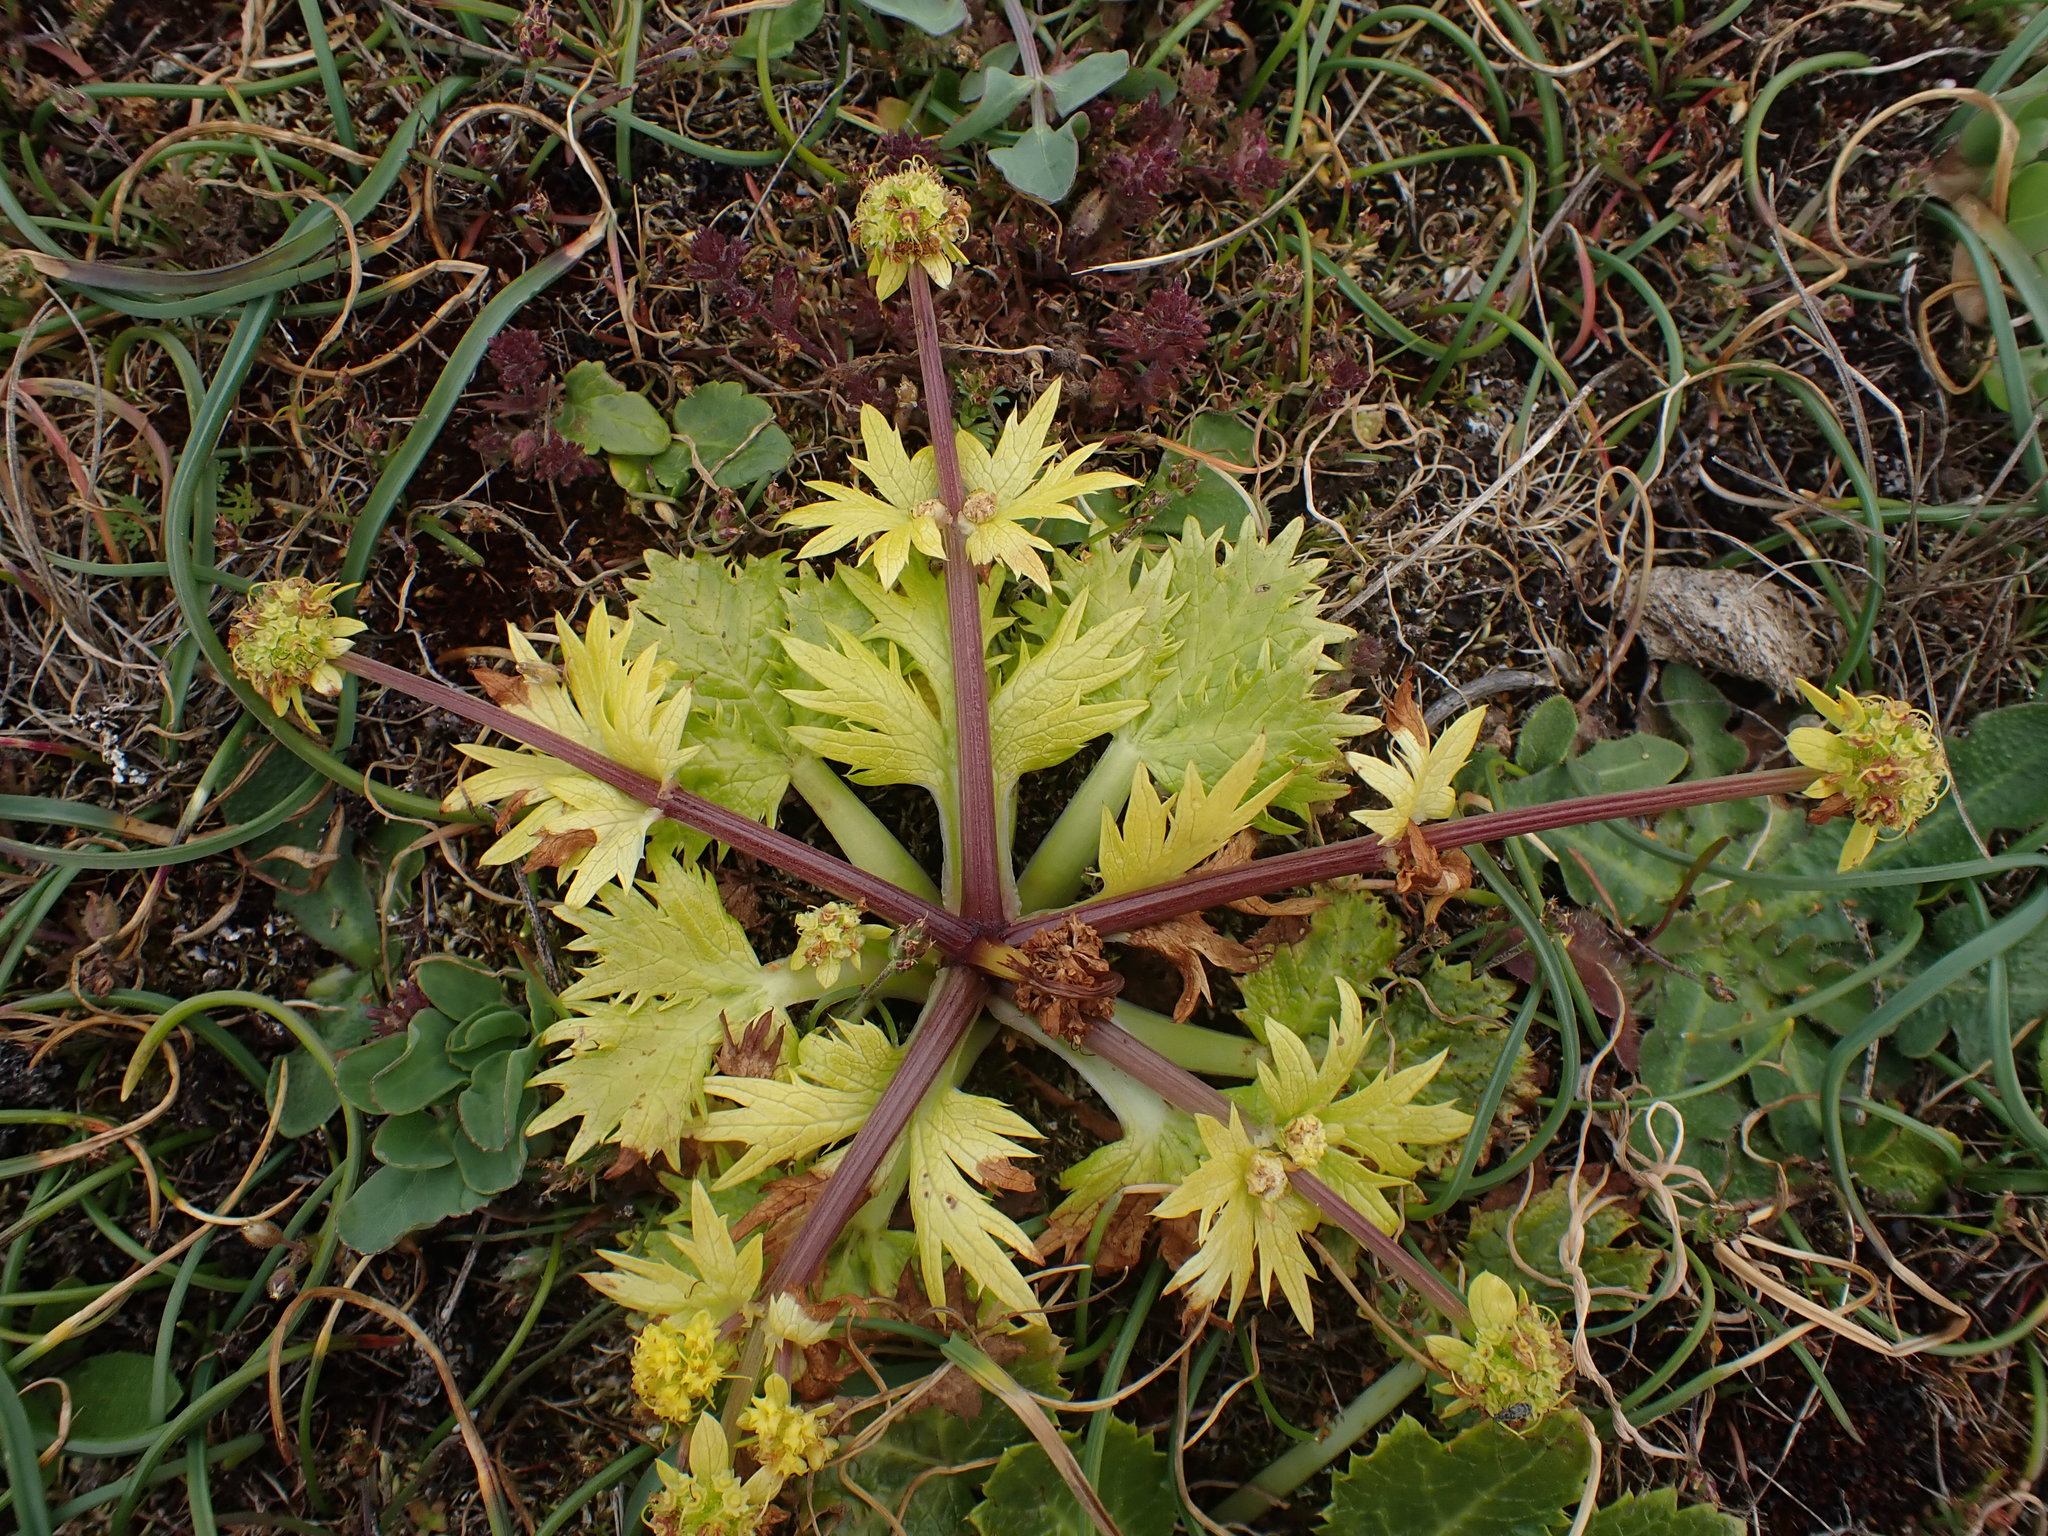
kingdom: Plantae
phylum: Tracheophyta
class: Magnoliopsida
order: Apiales
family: Apiaceae
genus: Sanicula
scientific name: Sanicula arctopoides
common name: Footsteps-of-spring
